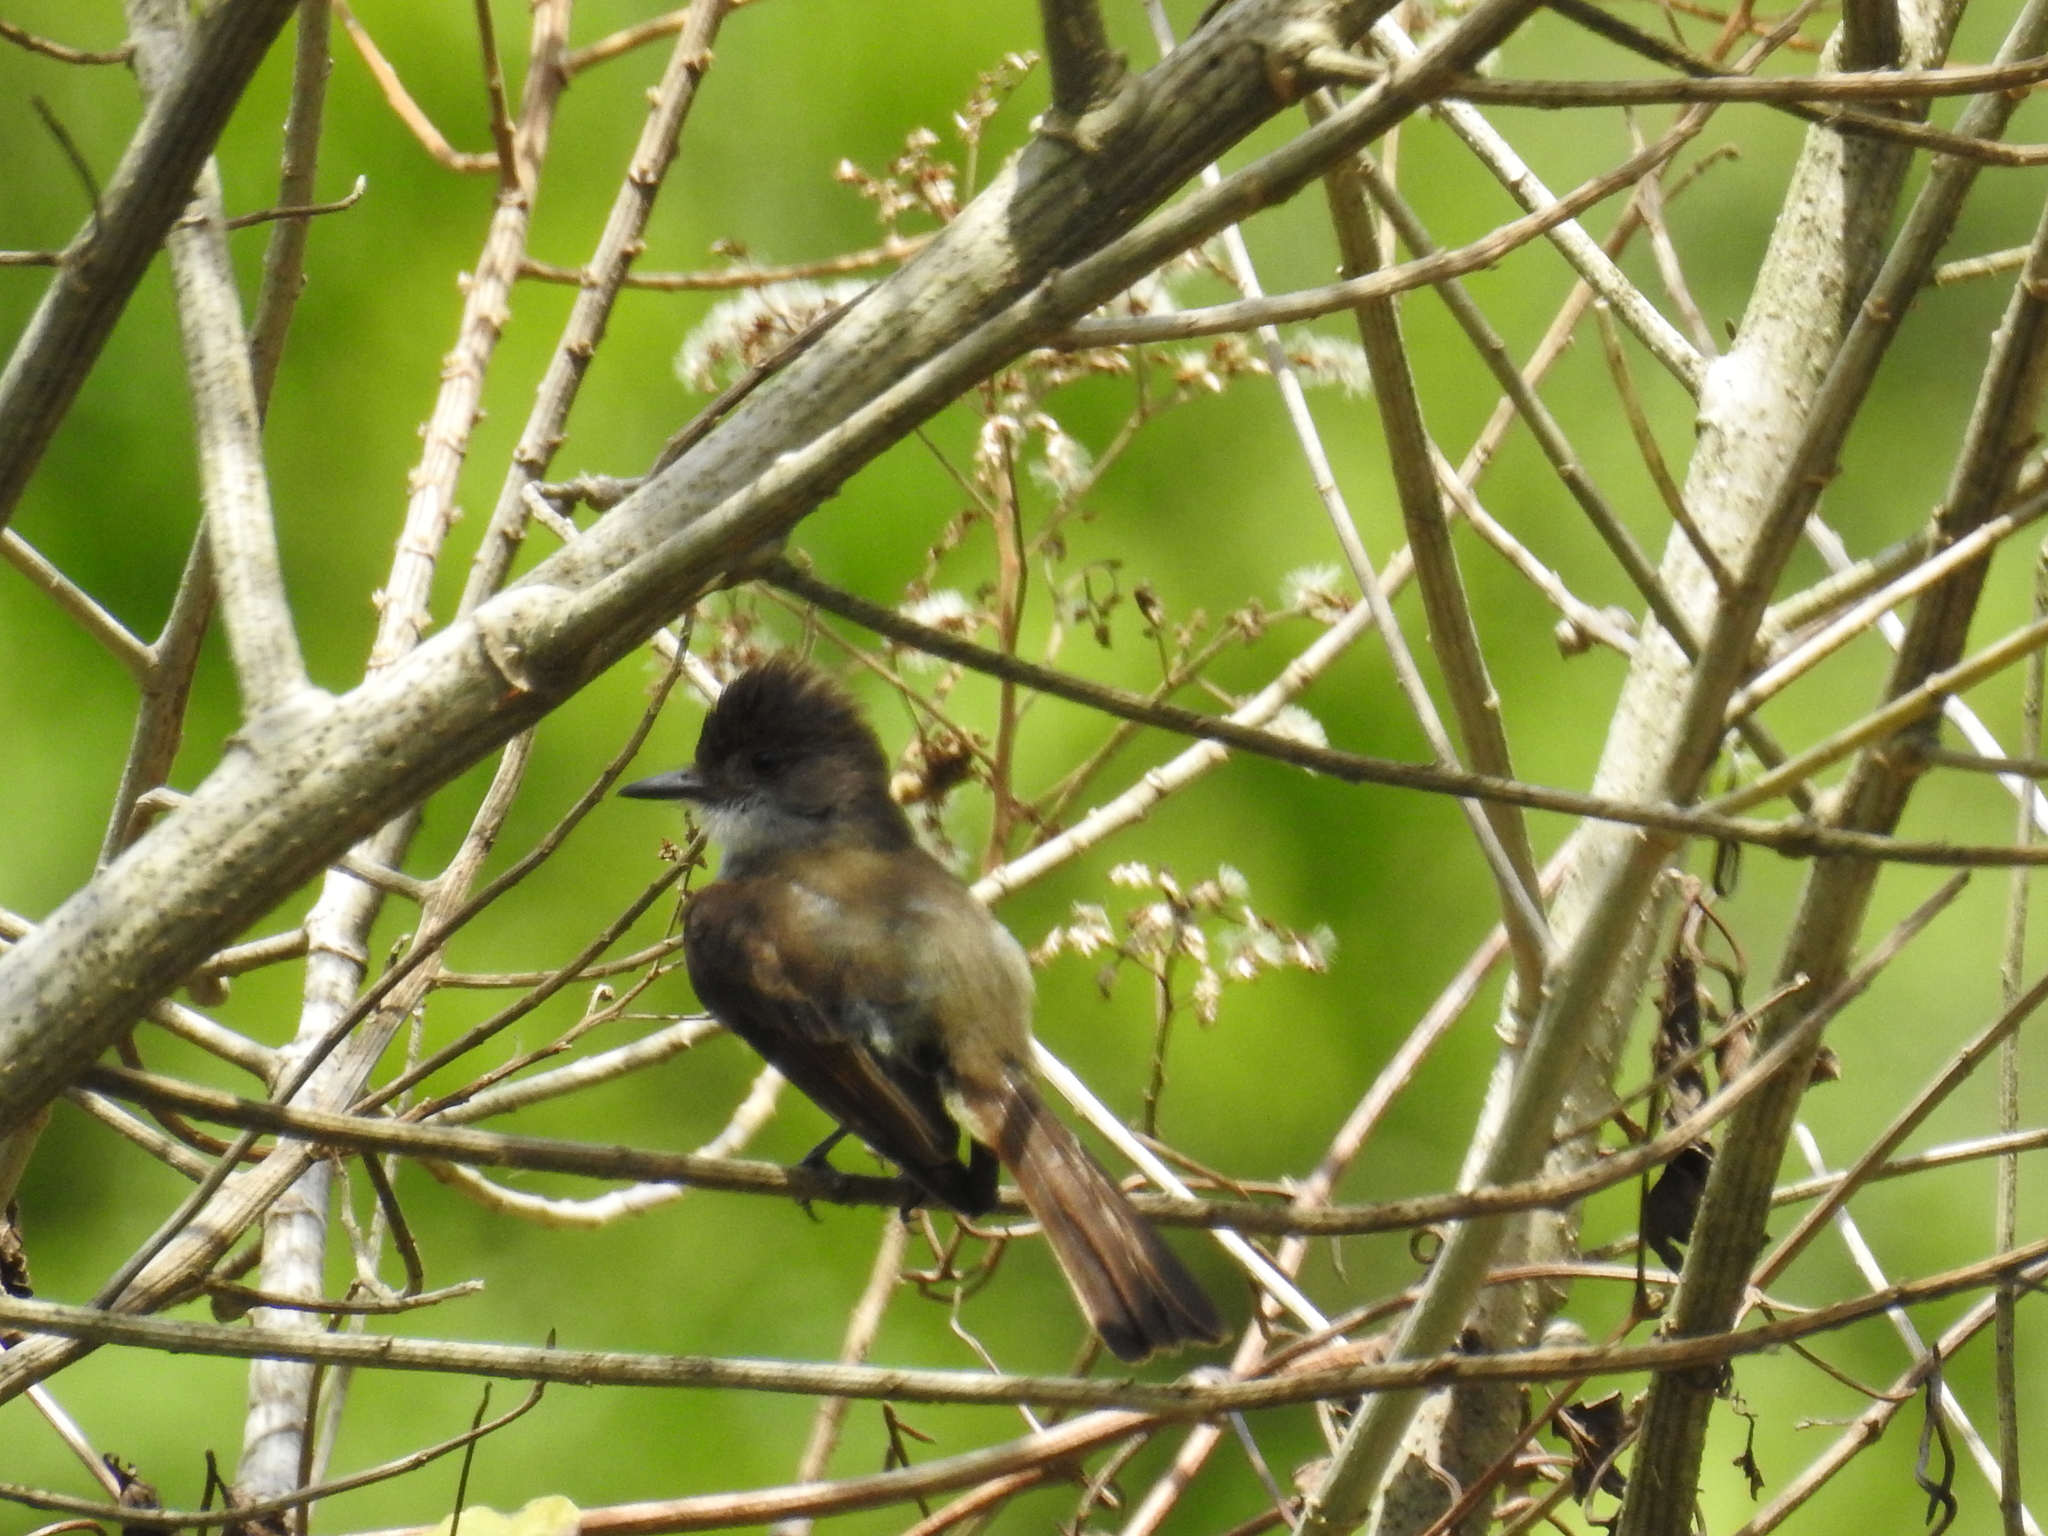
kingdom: Animalia
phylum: Chordata
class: Aves
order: Passeriformes
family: Tyrannidae
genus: Myiarchus
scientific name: Myiarchus tuberculifer
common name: Dusky-capped flycatcher
